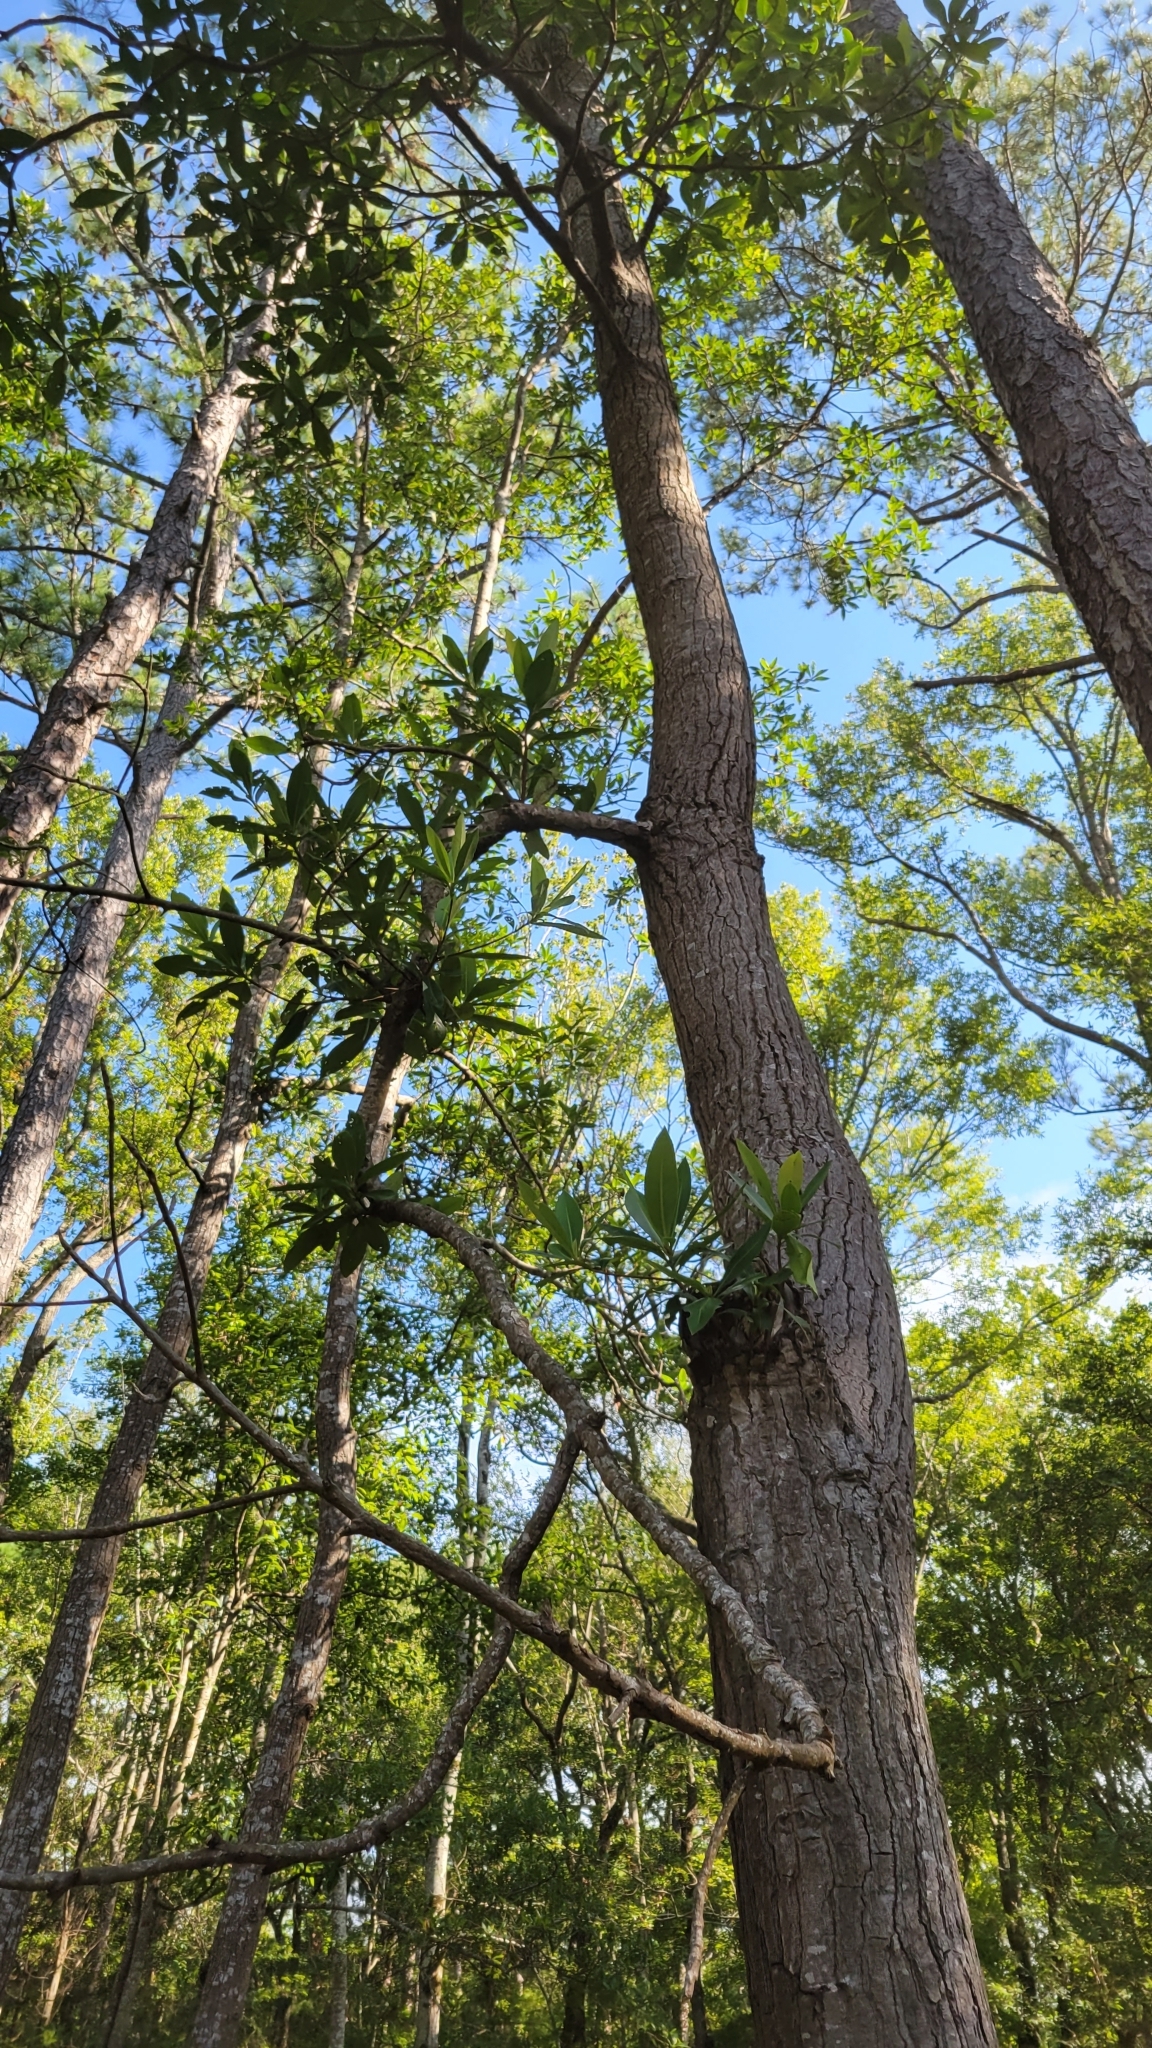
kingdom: Plantae
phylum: Tracheophyta
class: Magnoliopsida
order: Ericales
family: Theaceae
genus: Gordonia
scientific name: Gordonia lasianthus
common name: Loblolly bay
